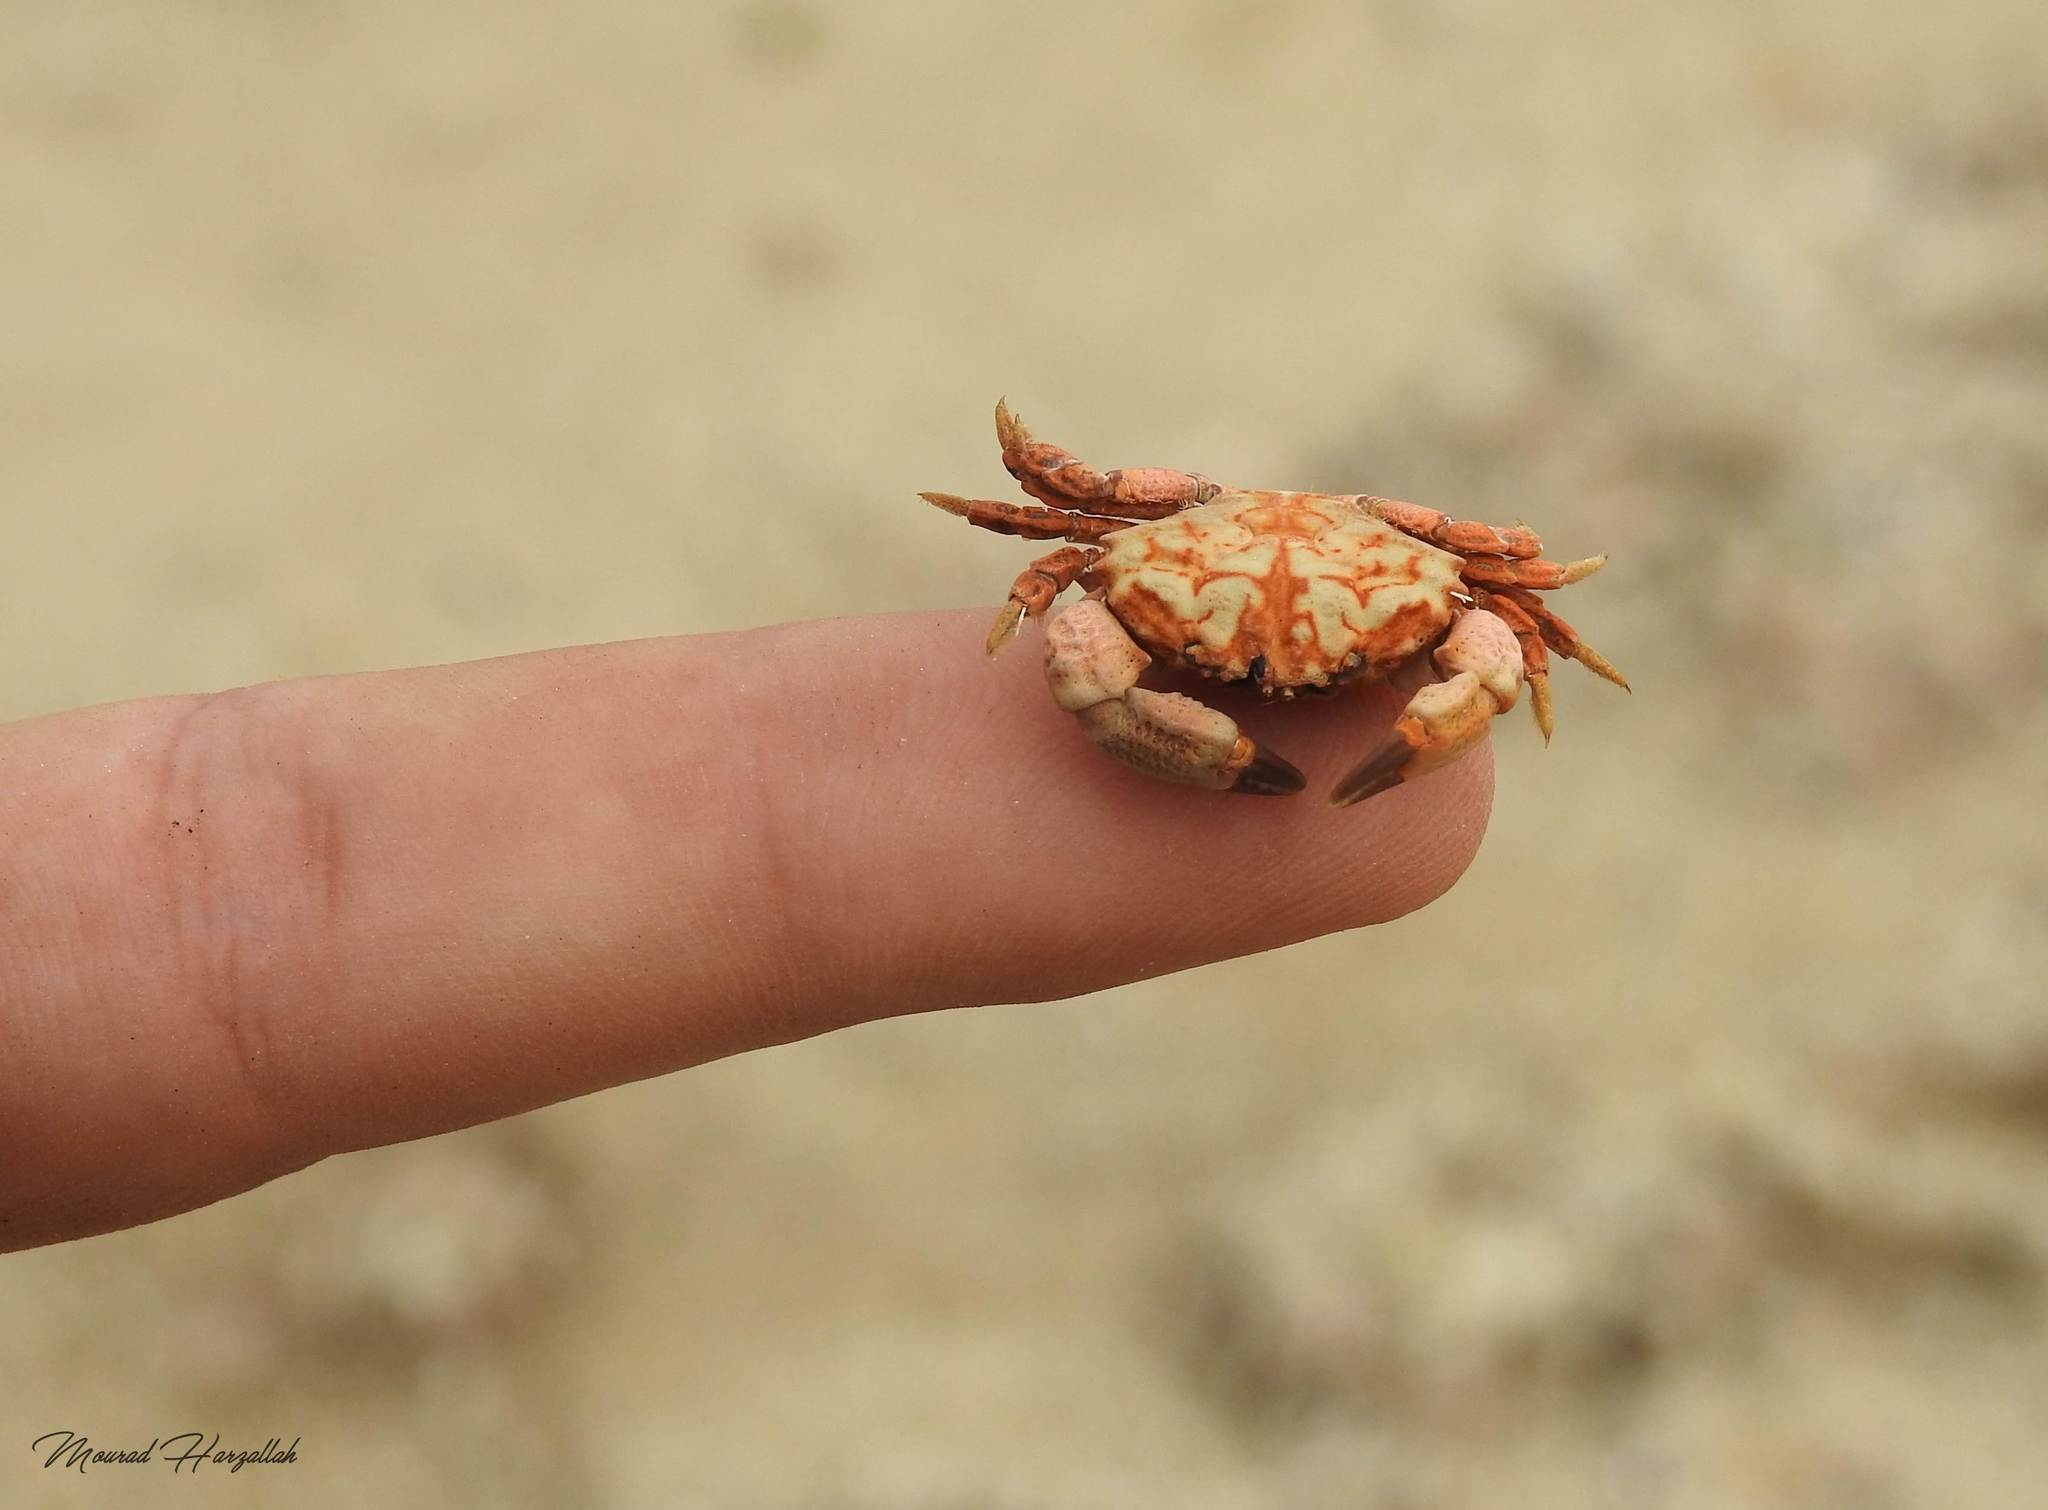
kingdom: Animalia
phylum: Arthropoda
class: Malacostraca
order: Decapoda
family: Xanthidae
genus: Xantho
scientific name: Xantho hydrophilus
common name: Montagu's crab
